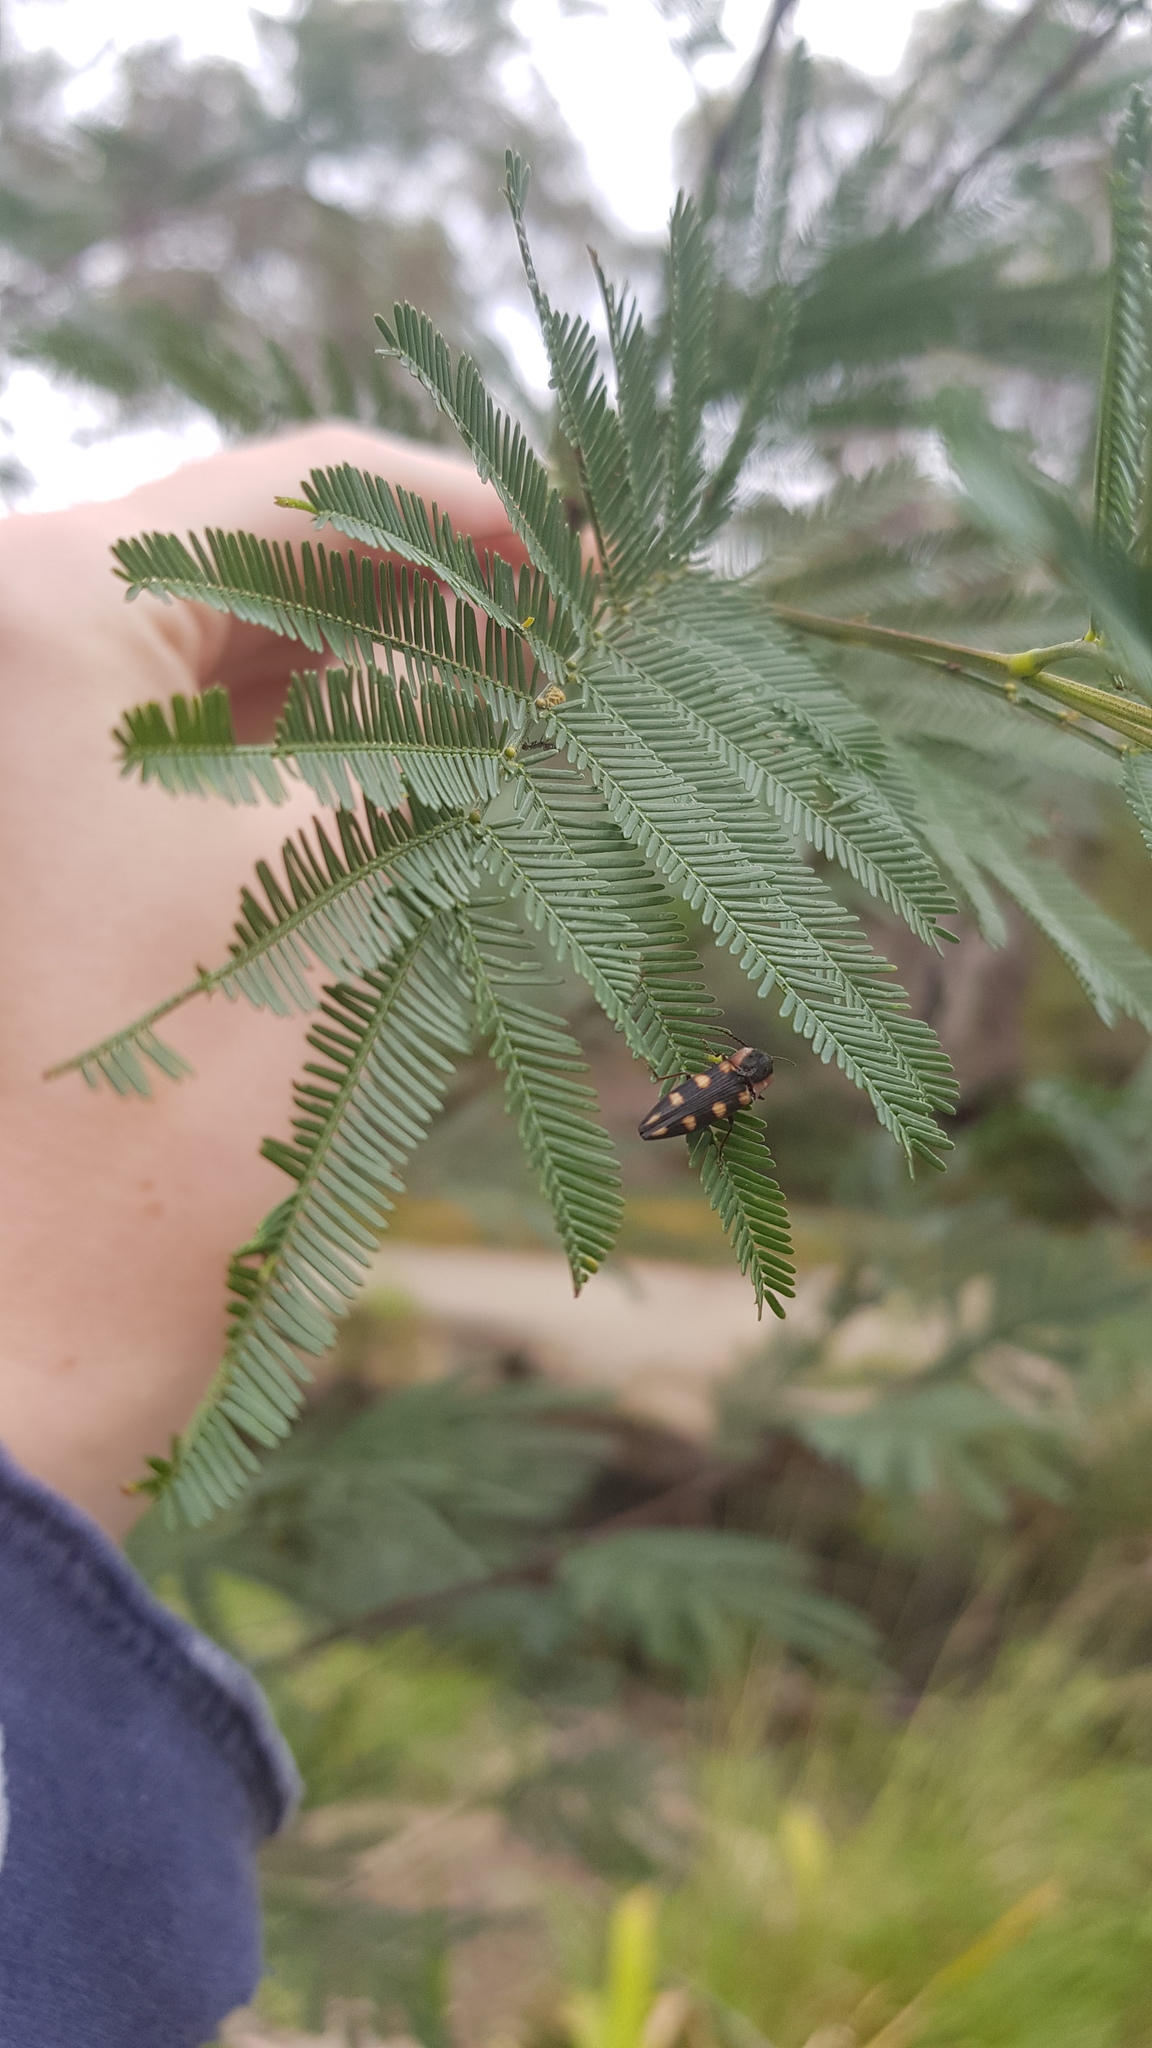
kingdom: Animalia
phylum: Arthropoda
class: Insecta
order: Coleoptera
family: Elateridae
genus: Ophidius
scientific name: Ophidius
